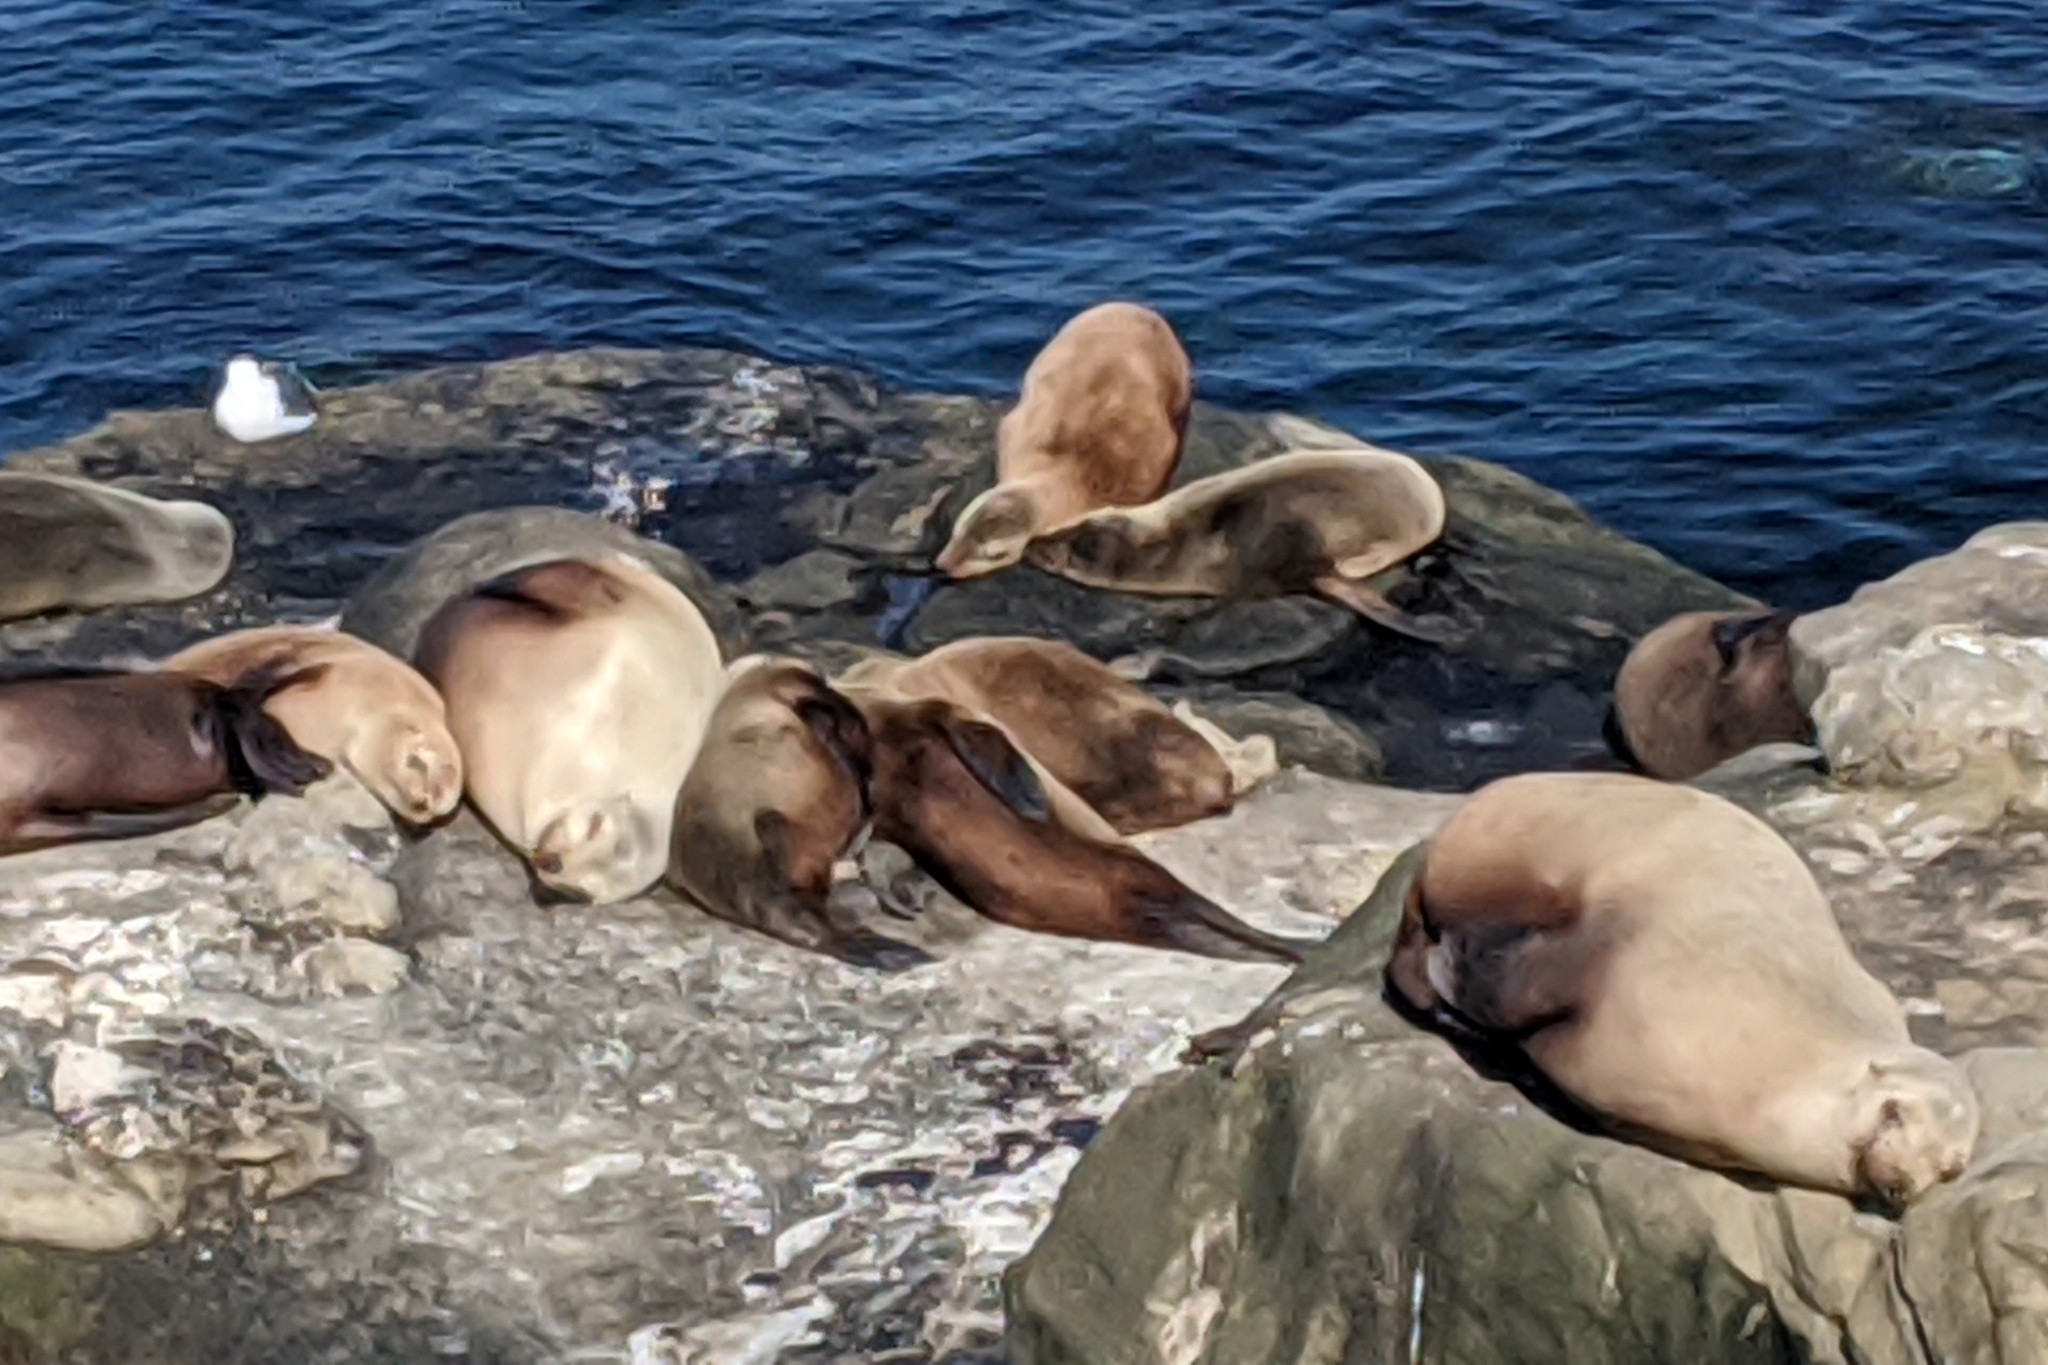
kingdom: Animalia
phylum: Chordata
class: Mammalia
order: Carnivora
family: Otariidae
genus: Zalophus
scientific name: Zalophus californianus
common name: California sea lion
